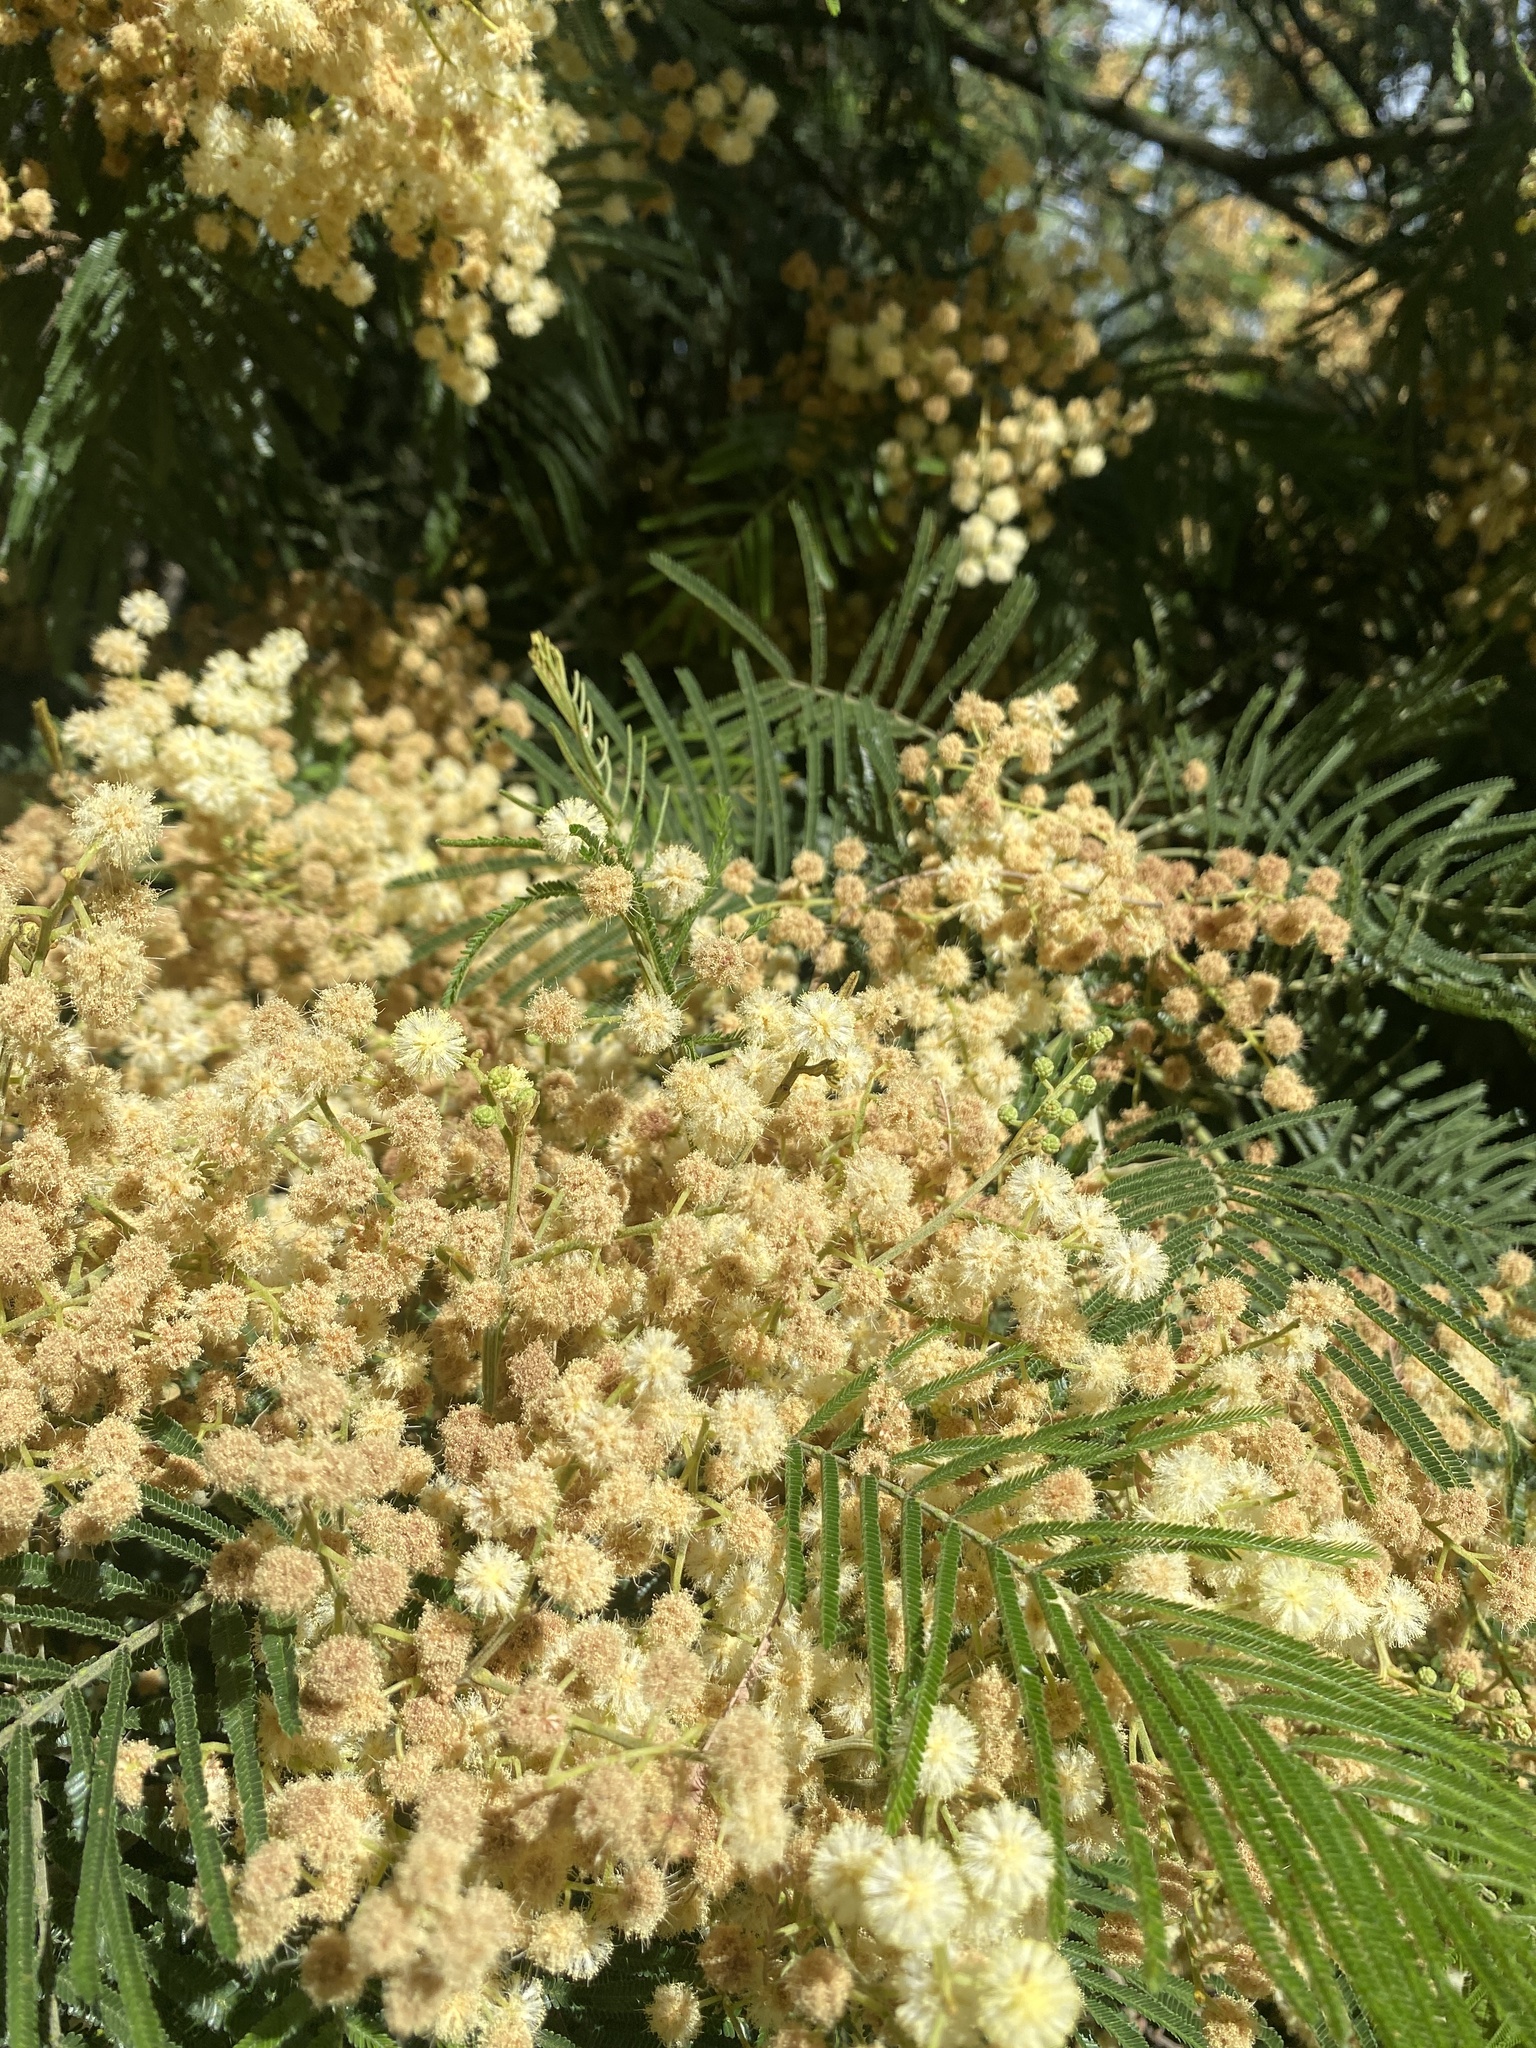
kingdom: Plantae
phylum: Tracheophyta
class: Magnoliopsida
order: Fabales
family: Fabaceae
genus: Acacia
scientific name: Acacia mearnsii
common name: Black wattle
